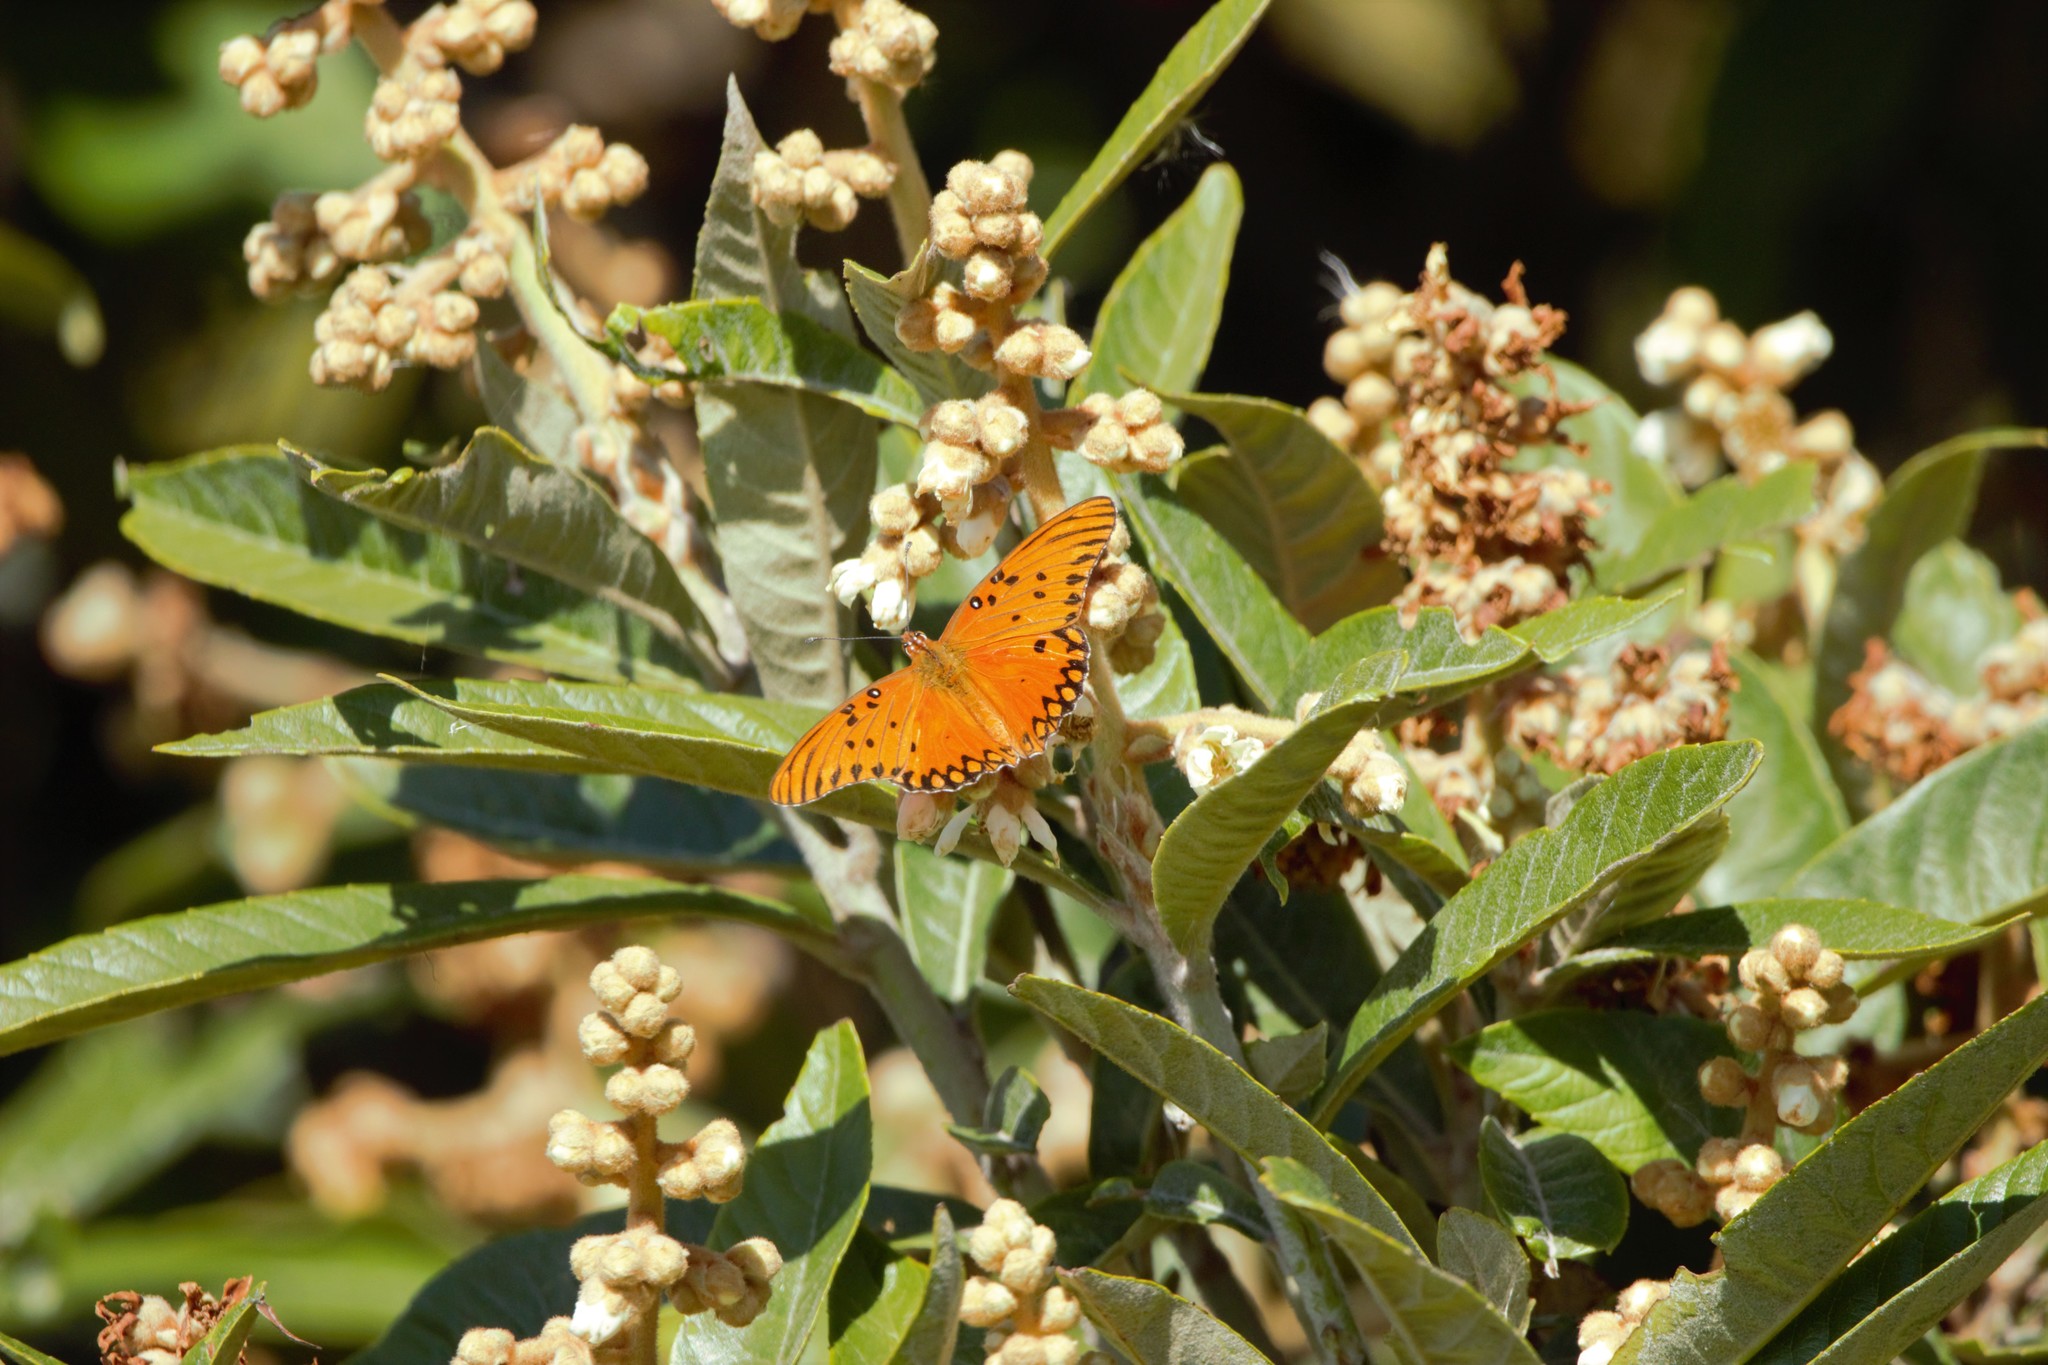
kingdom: Animalia
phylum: Arthropoda
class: Insecta
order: Lepidoptera
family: Nymphalidae
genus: Dione
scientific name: Dione vanillae
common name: Gulf fritillary
